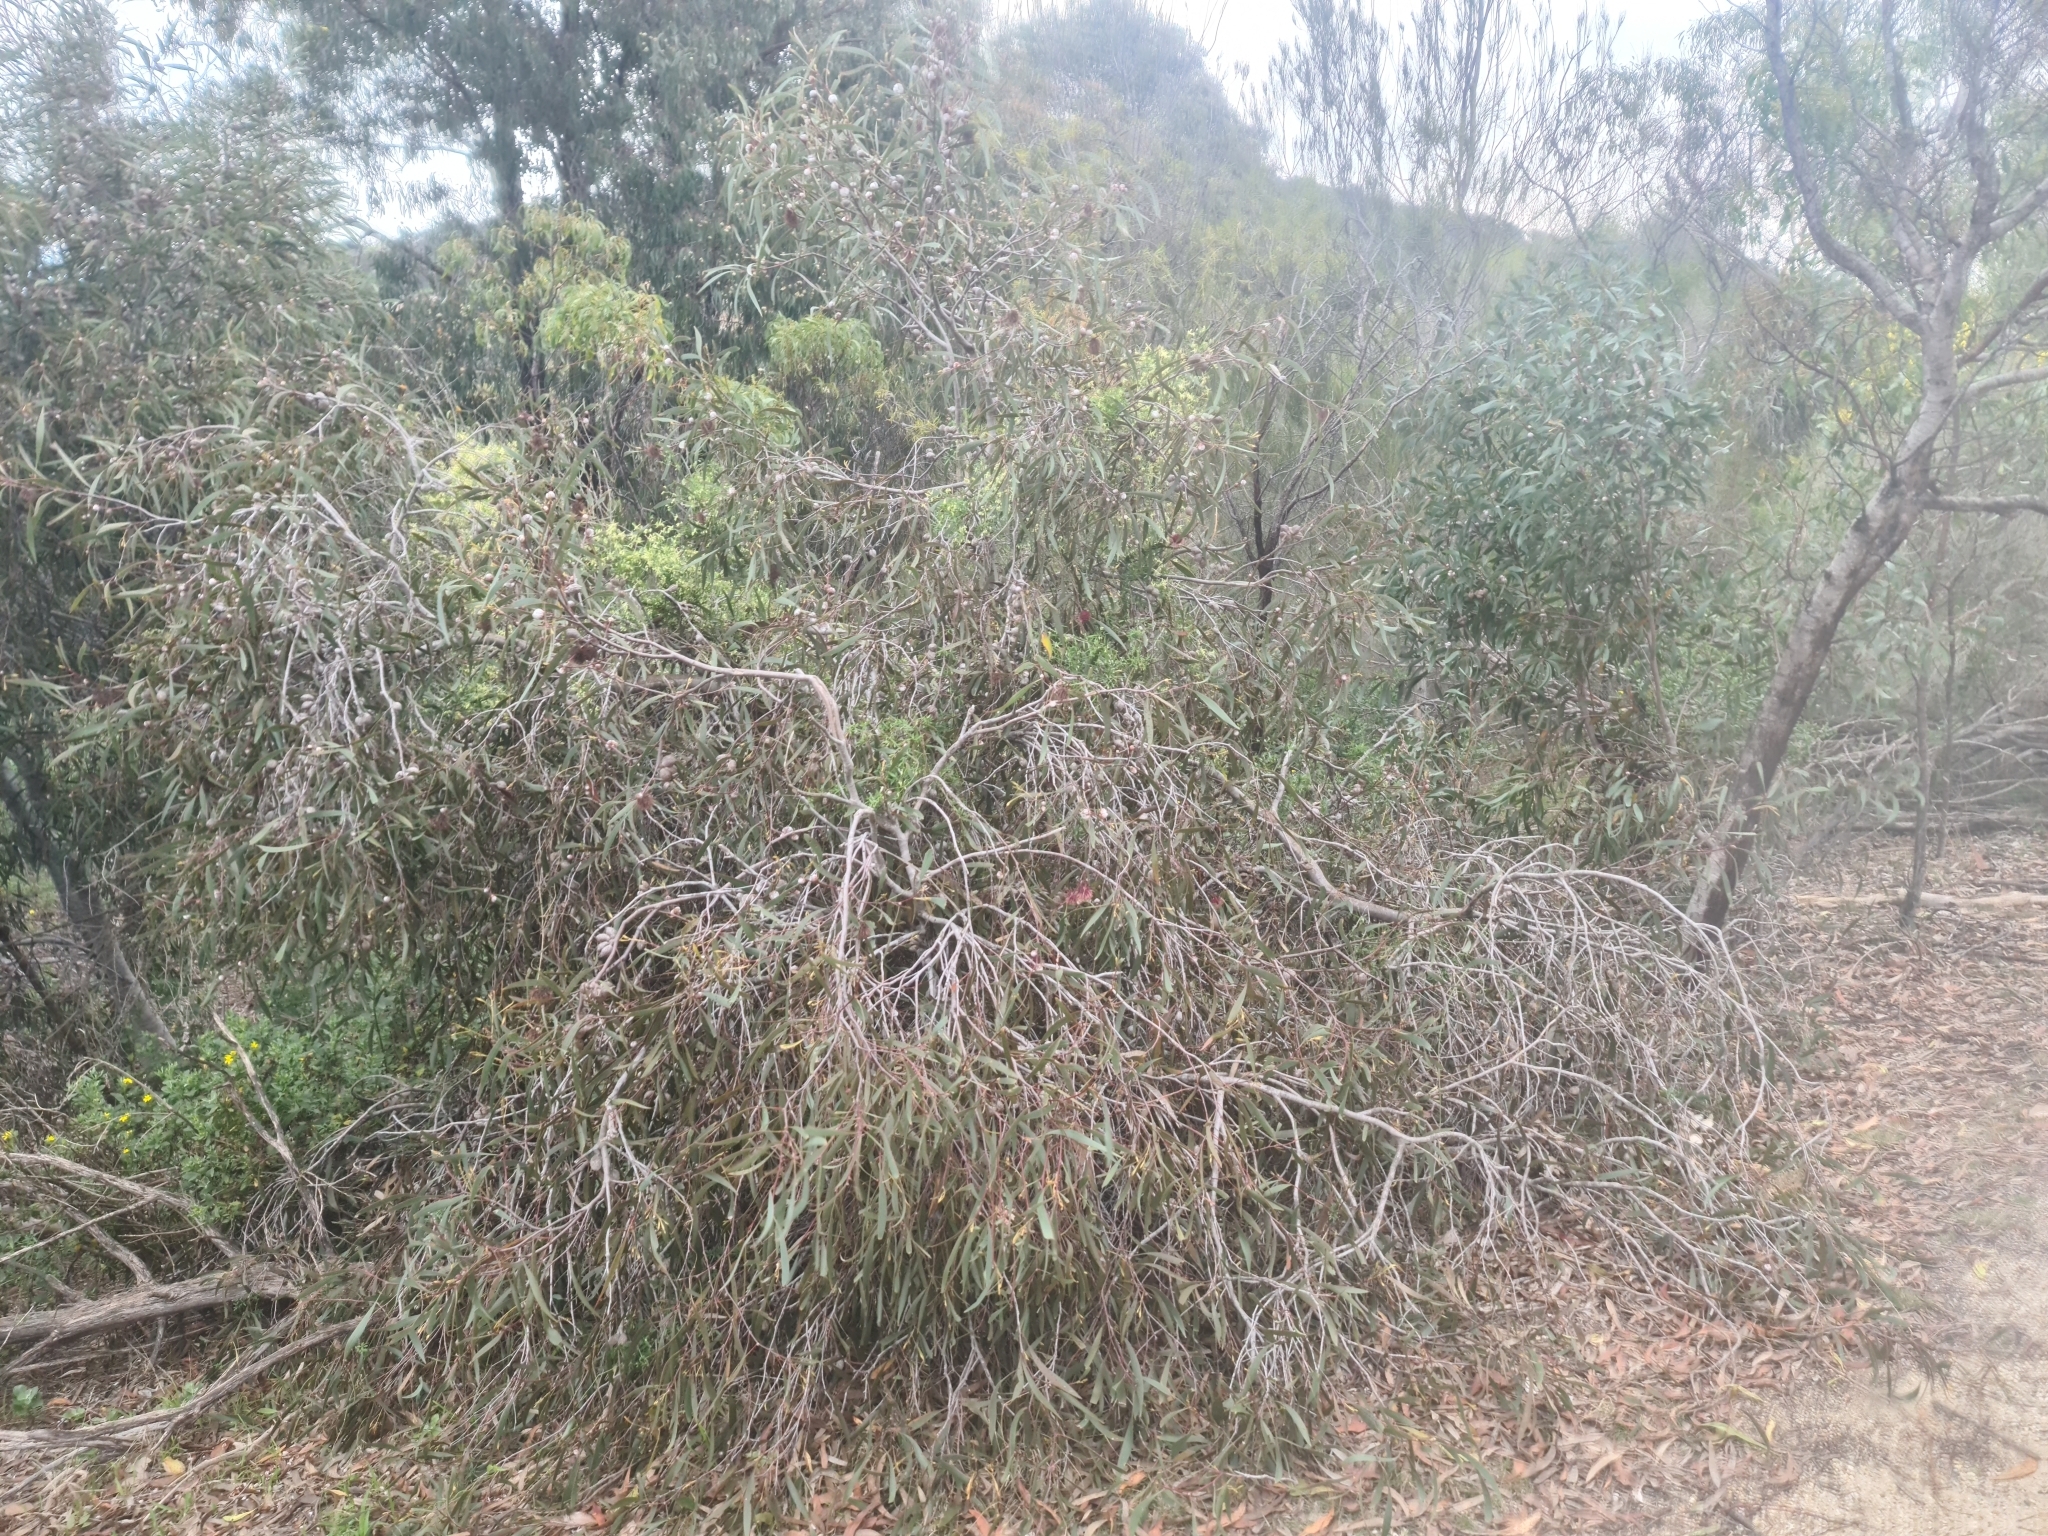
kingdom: Plantae
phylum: Tracheophyta
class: Magnoliopsida
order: Proteales
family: Proteaceae
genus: Hakea
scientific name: Hakea laurina
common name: Cushion hakea
